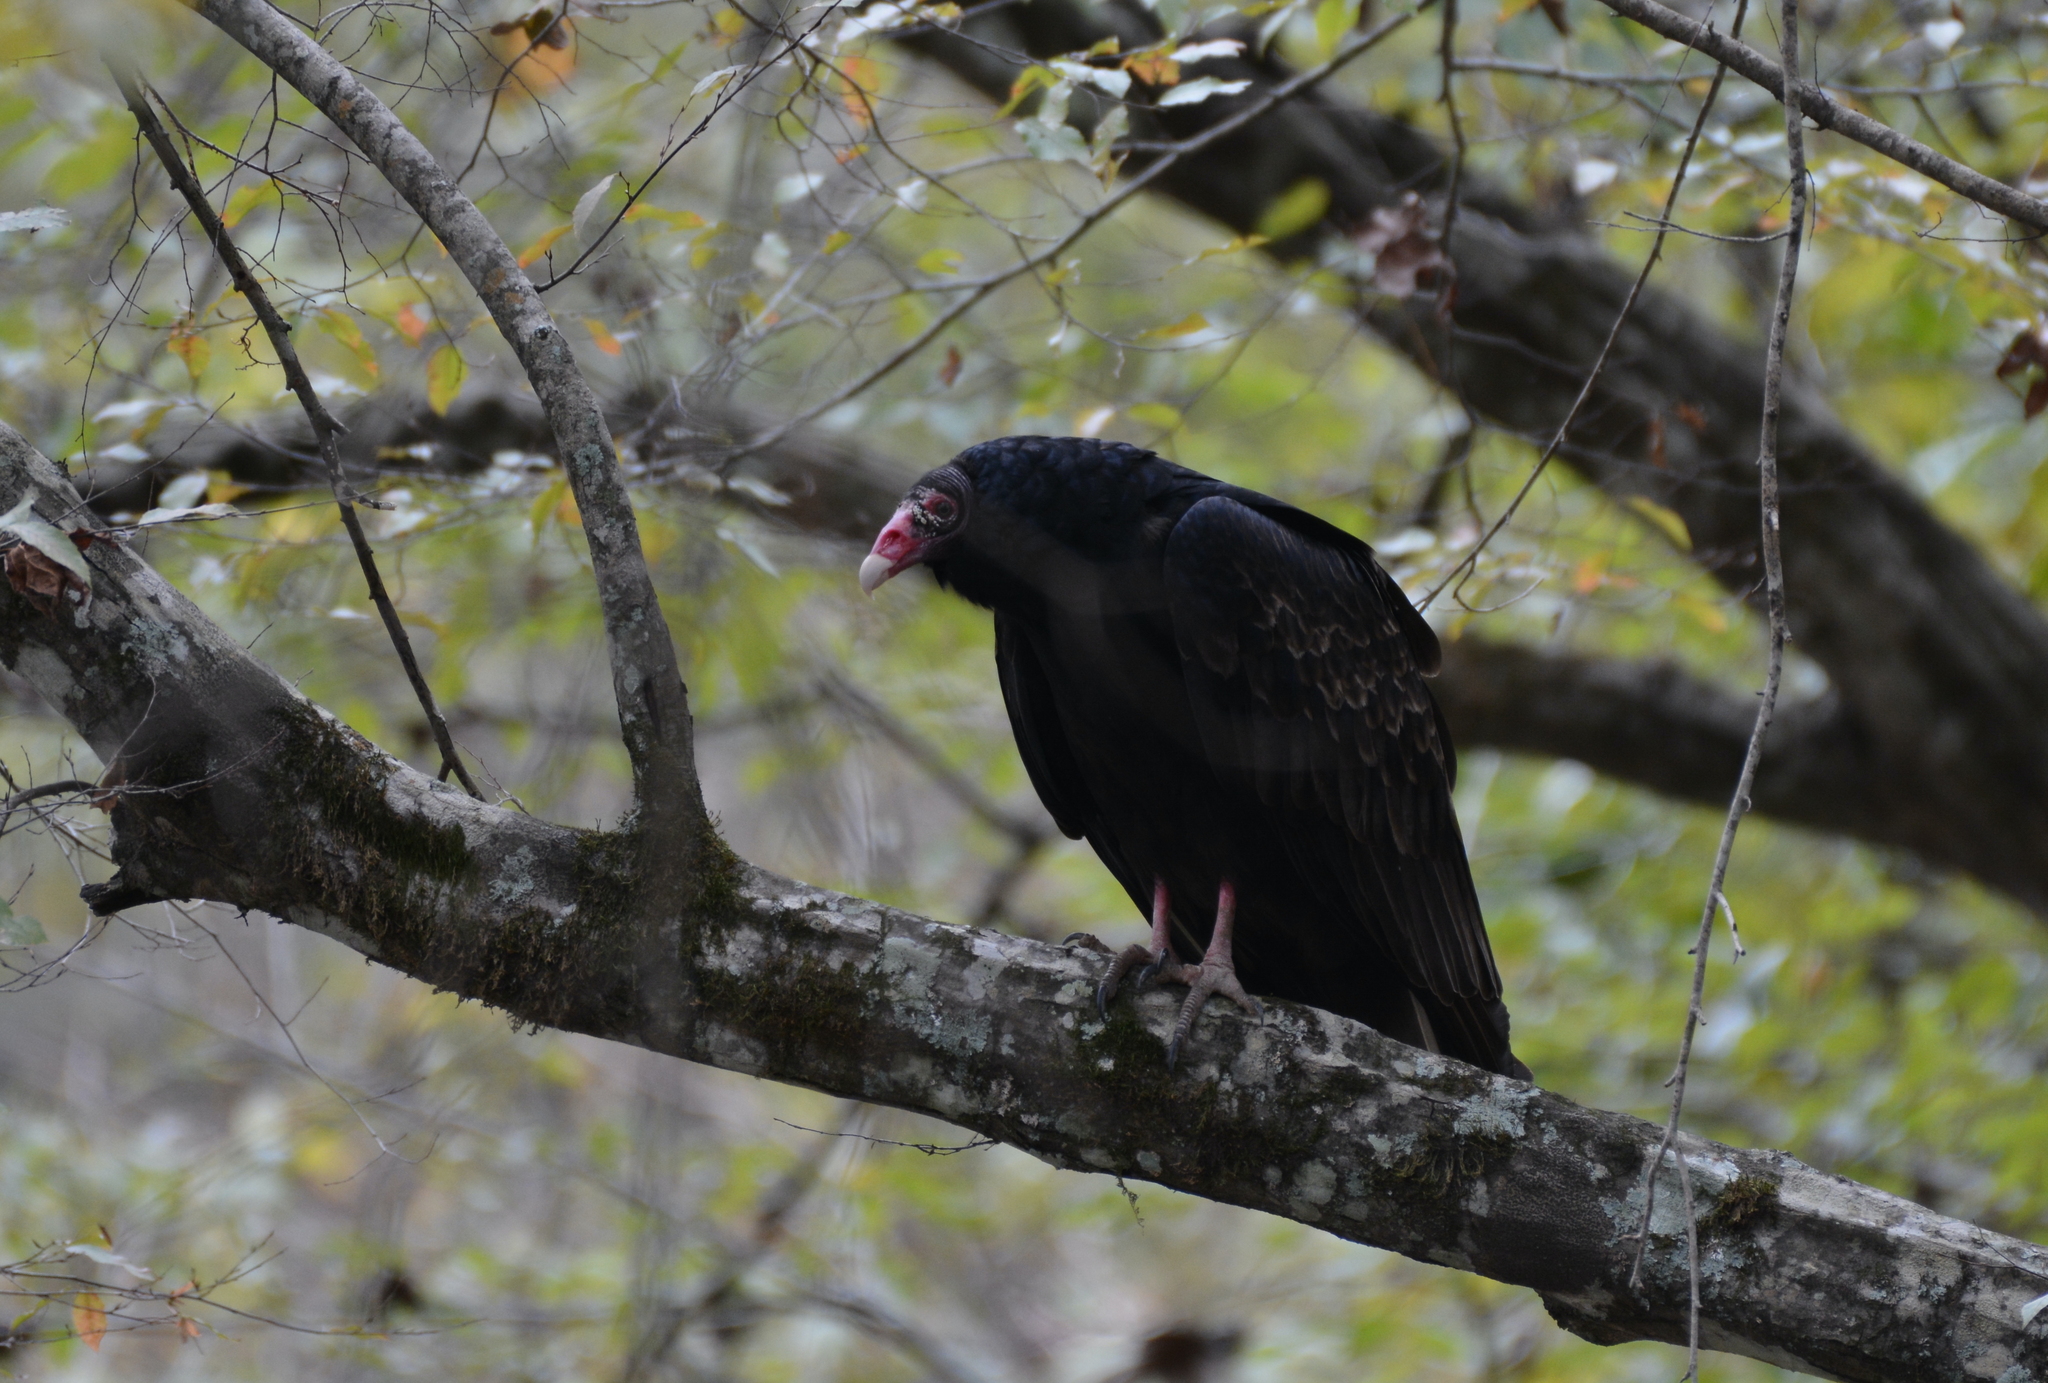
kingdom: Animalia
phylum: Chordata
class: Aves
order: Accipitriformes
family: Cathartidae
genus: Cathartes
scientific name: Cathartes aura
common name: Turkey vulture
